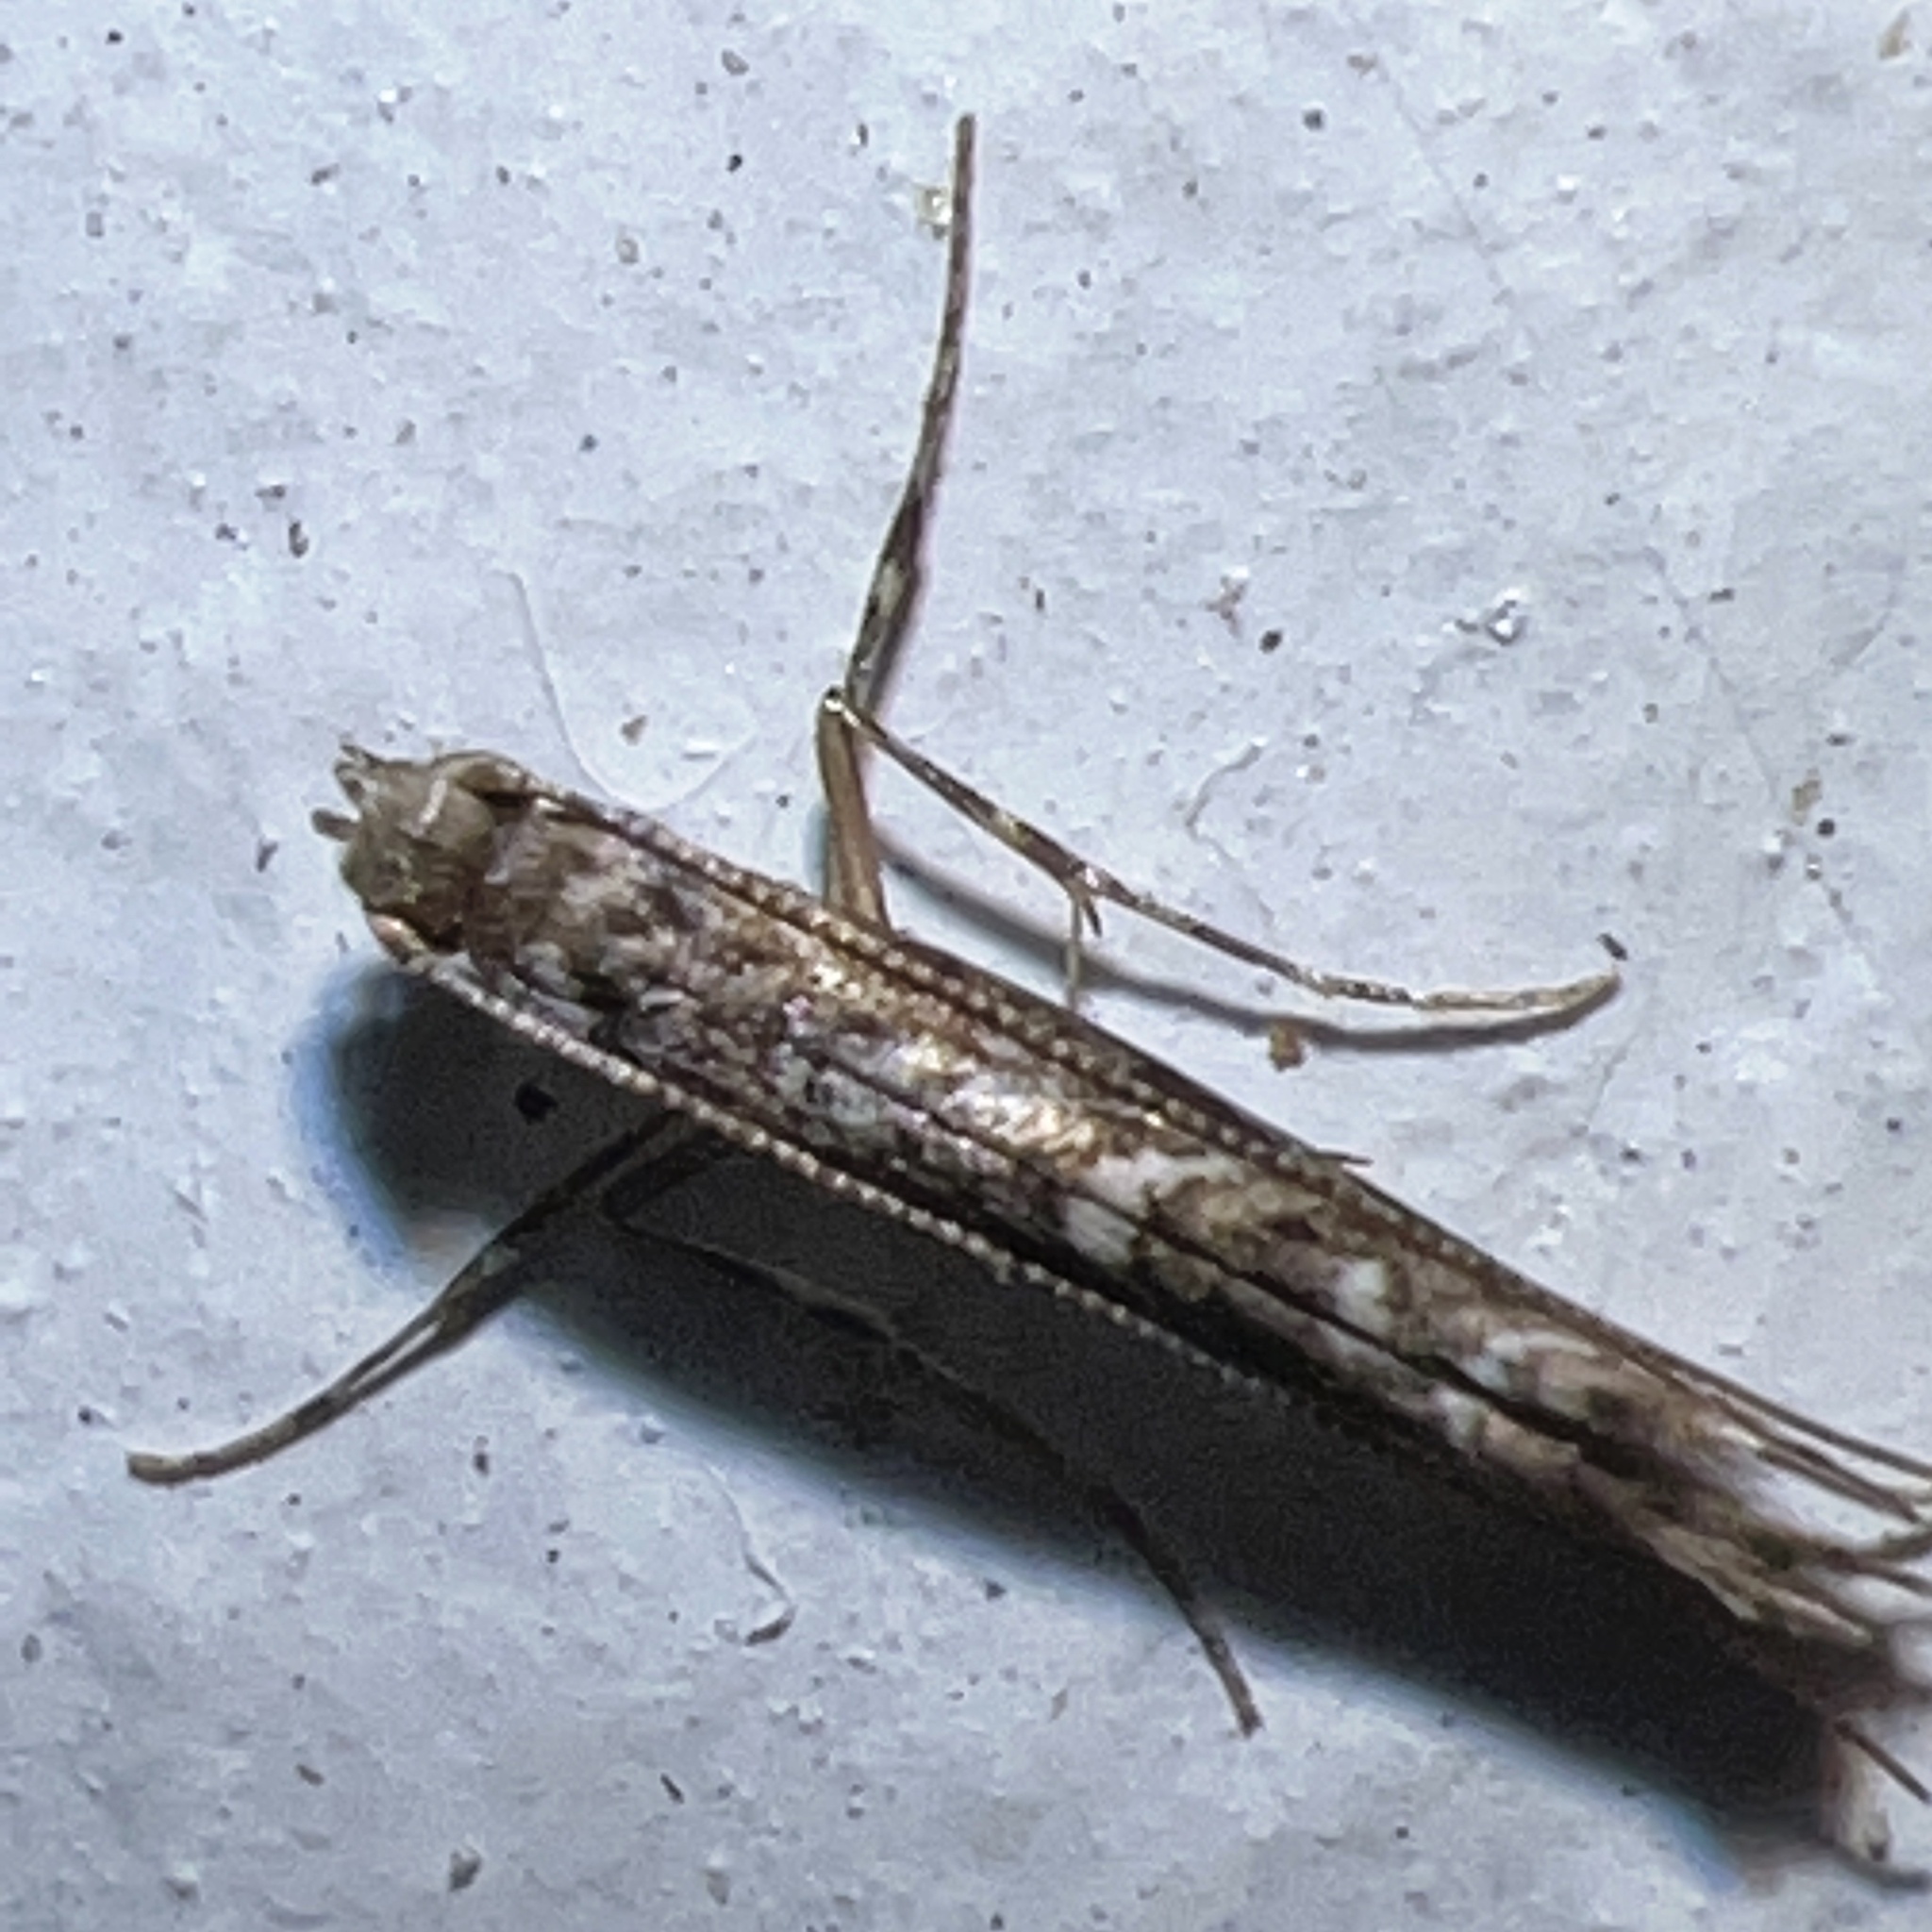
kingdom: Animalia
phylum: Arthropoda
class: Insecta
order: Lepidoptera
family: Gracillariidae
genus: Neurobathra
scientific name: Neurobathra strigifinitella
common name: Finite-channeled leafminer moth
